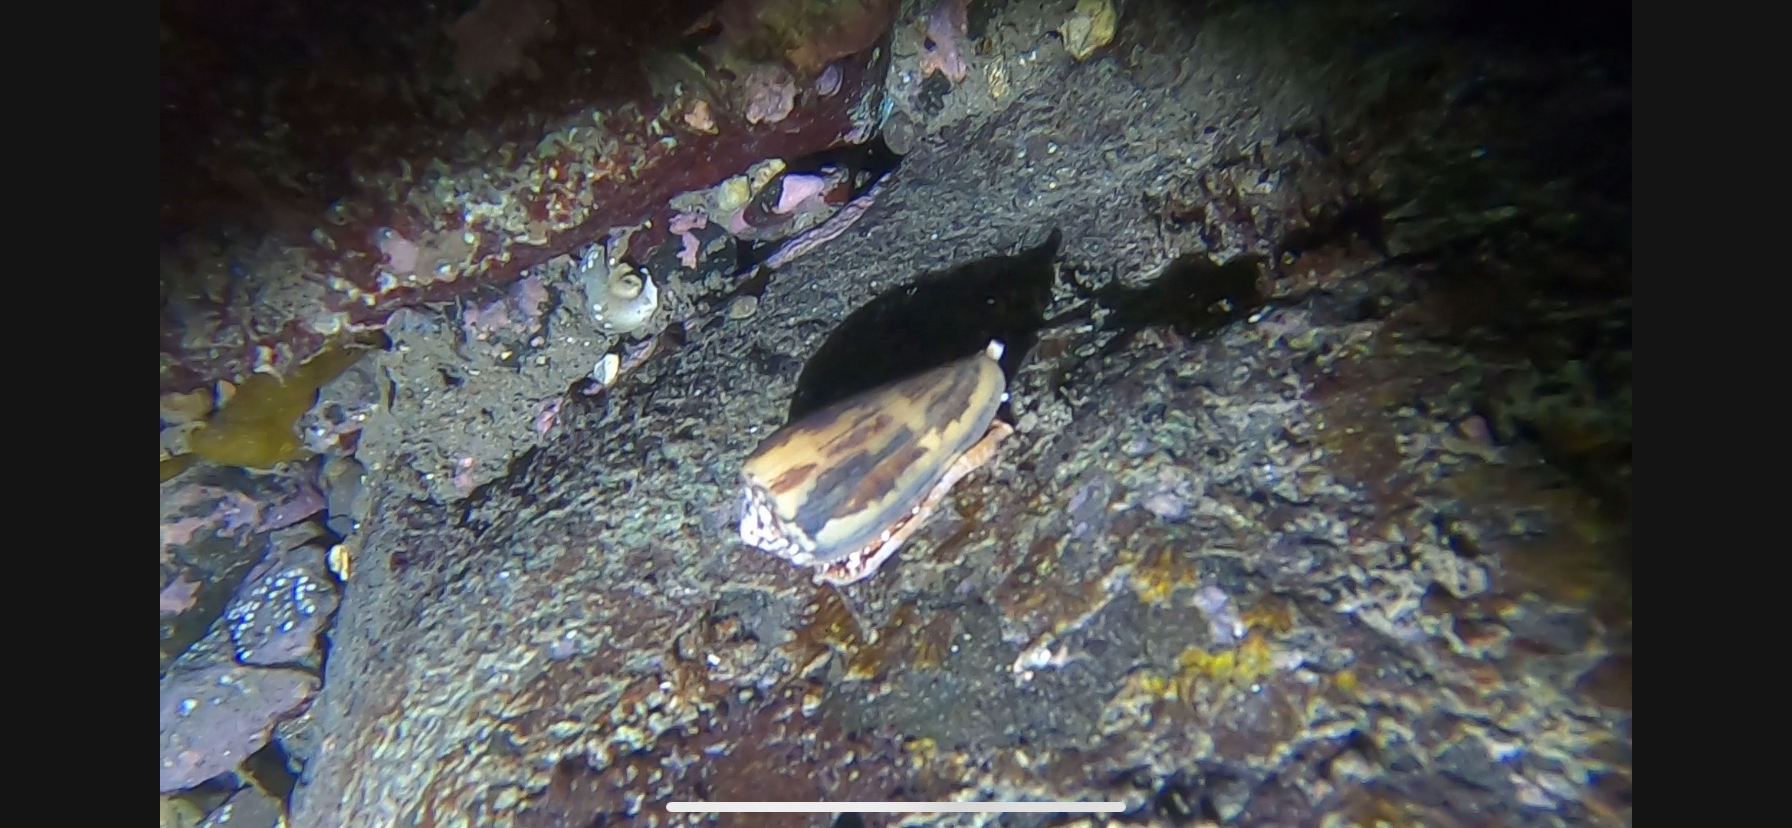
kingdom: Animalia
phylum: Mollusca
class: Gastropoda
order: Neogastropoda
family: Conidae
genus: Conus
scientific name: Conus striatus
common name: Striated cone
